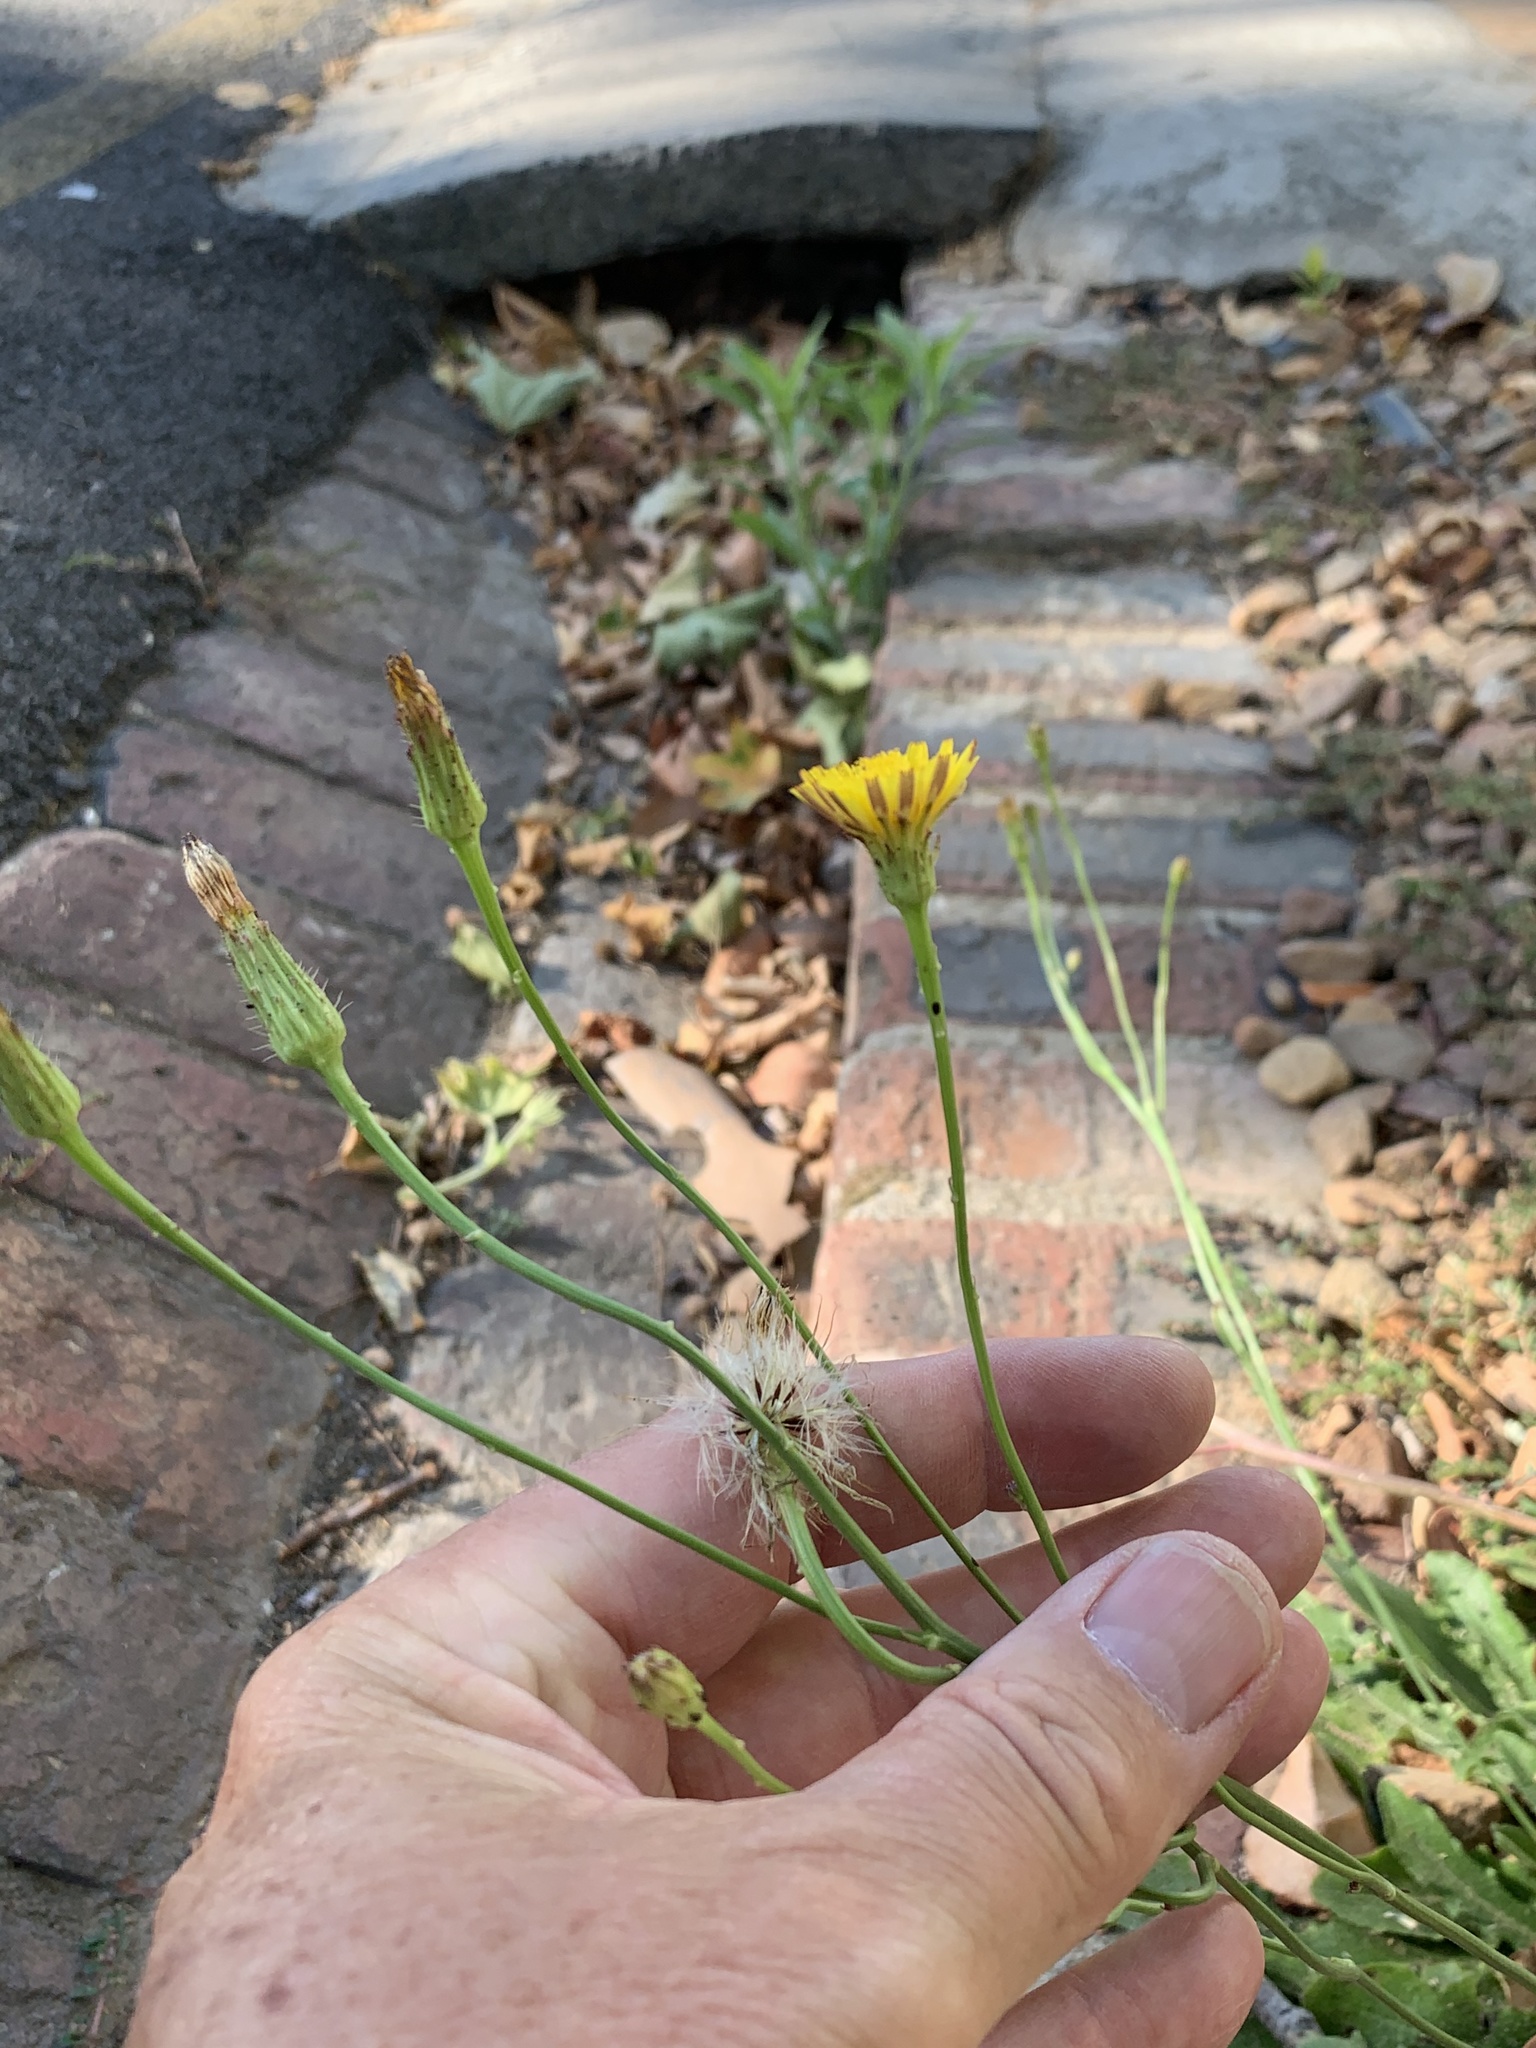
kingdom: Plantae
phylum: Tracheophyta
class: Magnoliopsida
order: Asterales
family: Asteraceae
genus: Hypochaeris
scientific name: Hypochaeris radicata
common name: Flatweed
